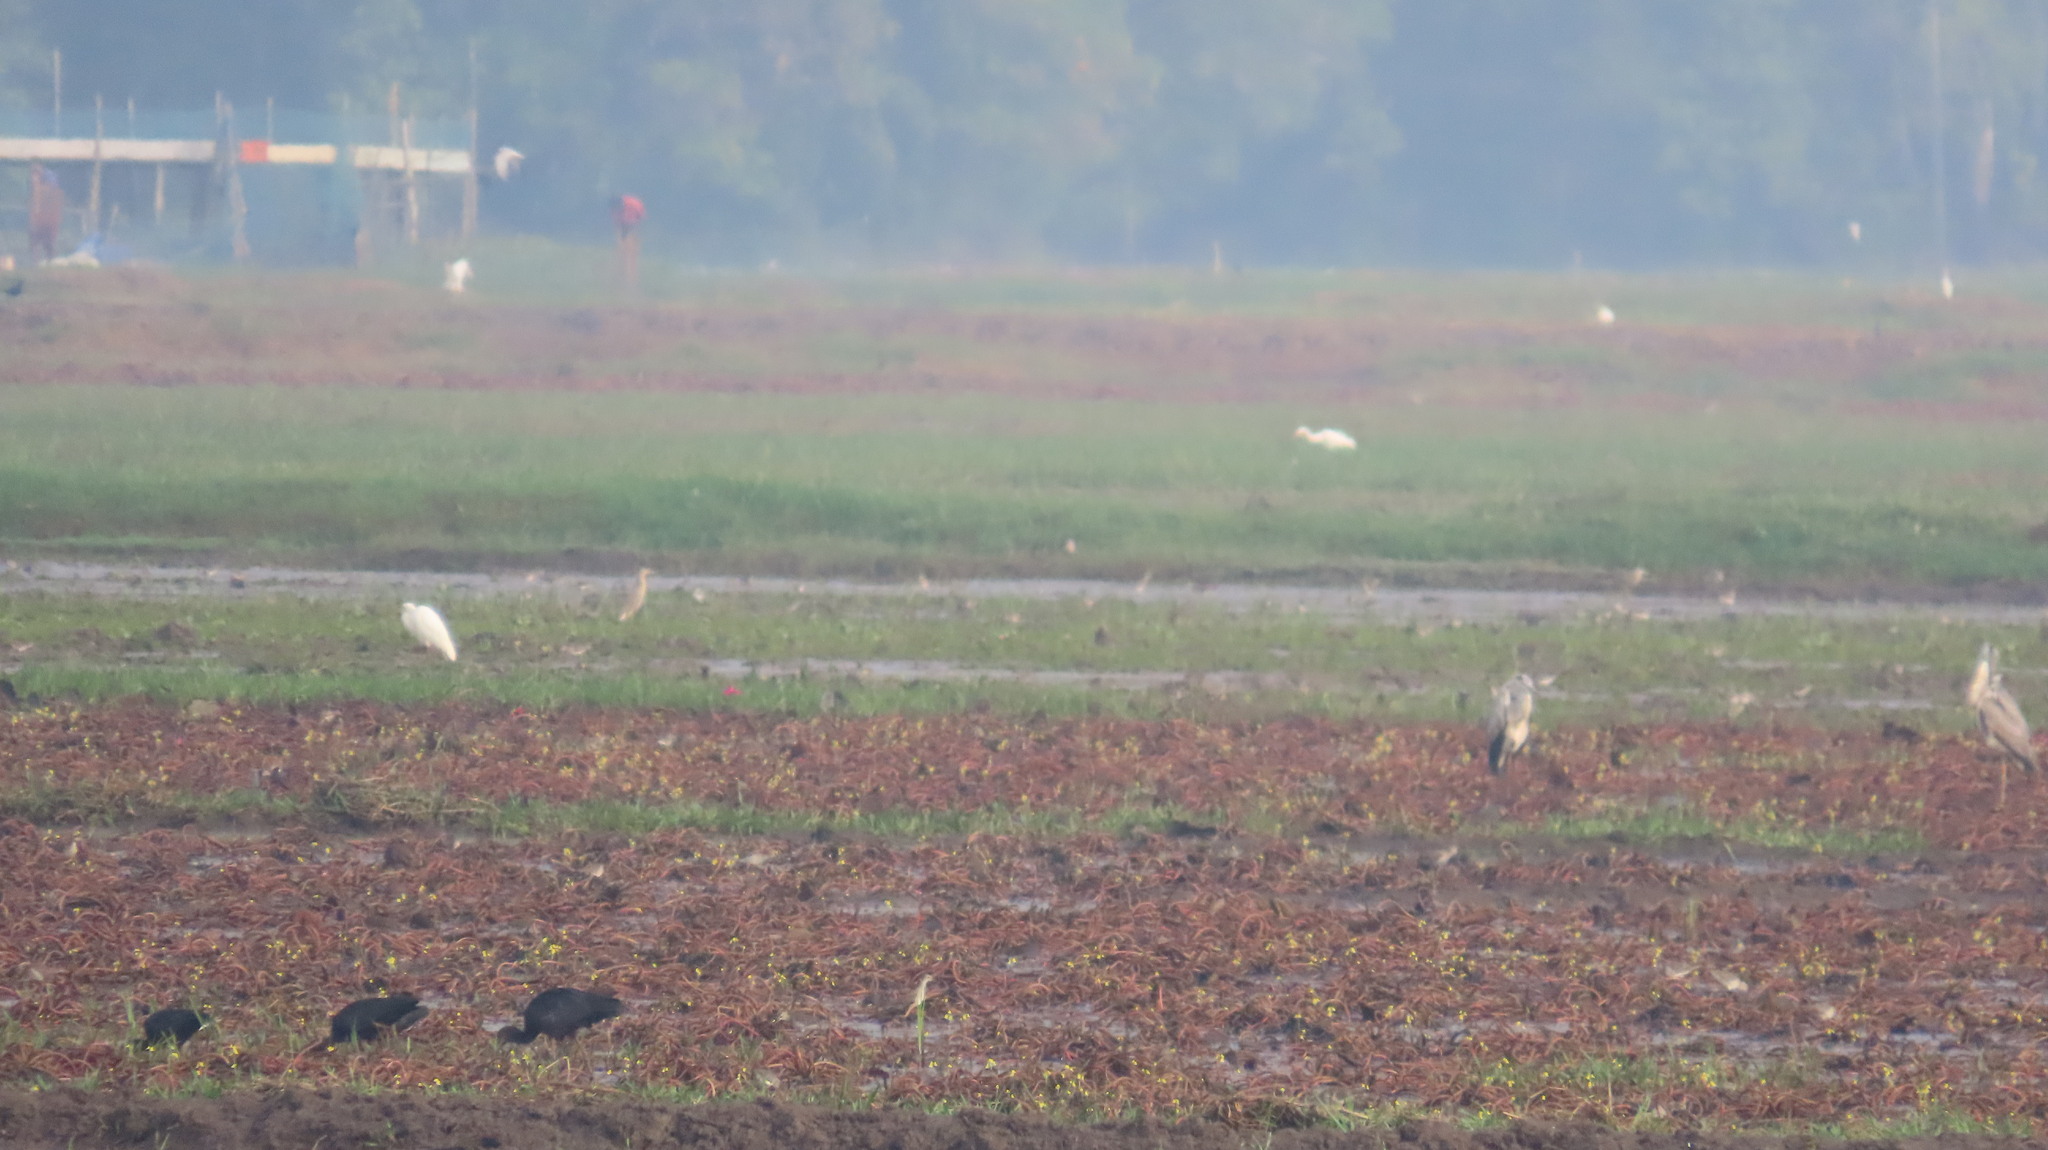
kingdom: Animalia
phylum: Chordata
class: Aves
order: Pelecaniformes
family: Ardeidae
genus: Ardeola
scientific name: Ardeola grayii
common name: Indian pond heron
